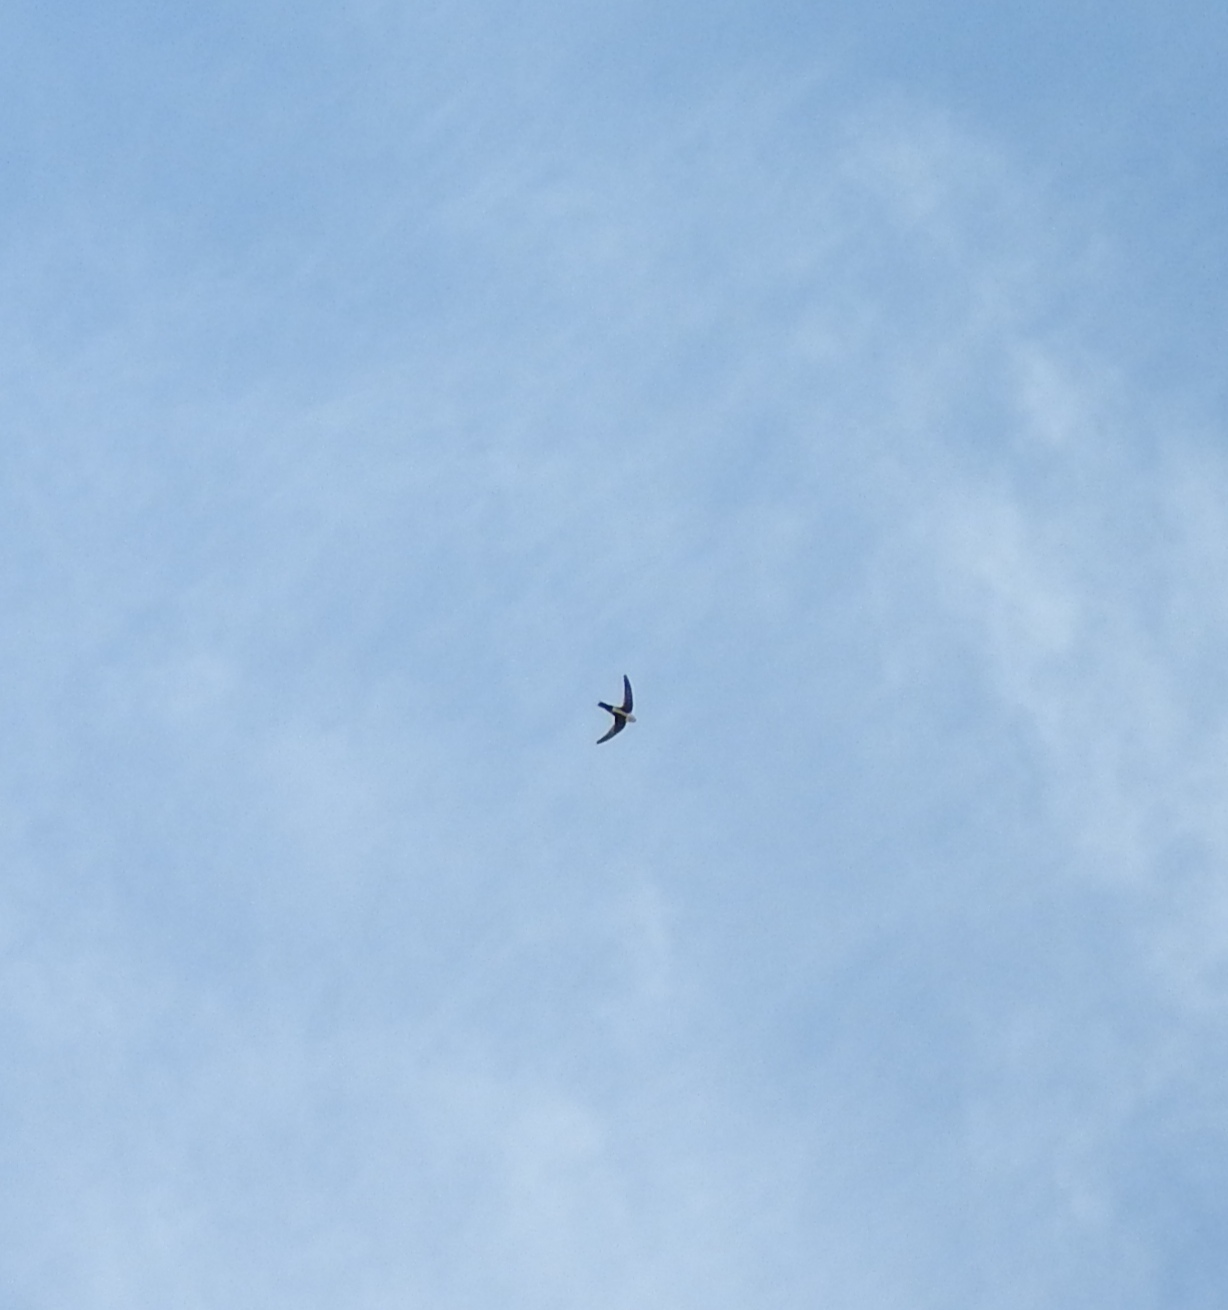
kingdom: Animalia
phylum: Chordata
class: Aves
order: Apodiformes
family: Apodidae
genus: Aeronautes
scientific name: Aeronautes saxatalis
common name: White-throated swift
